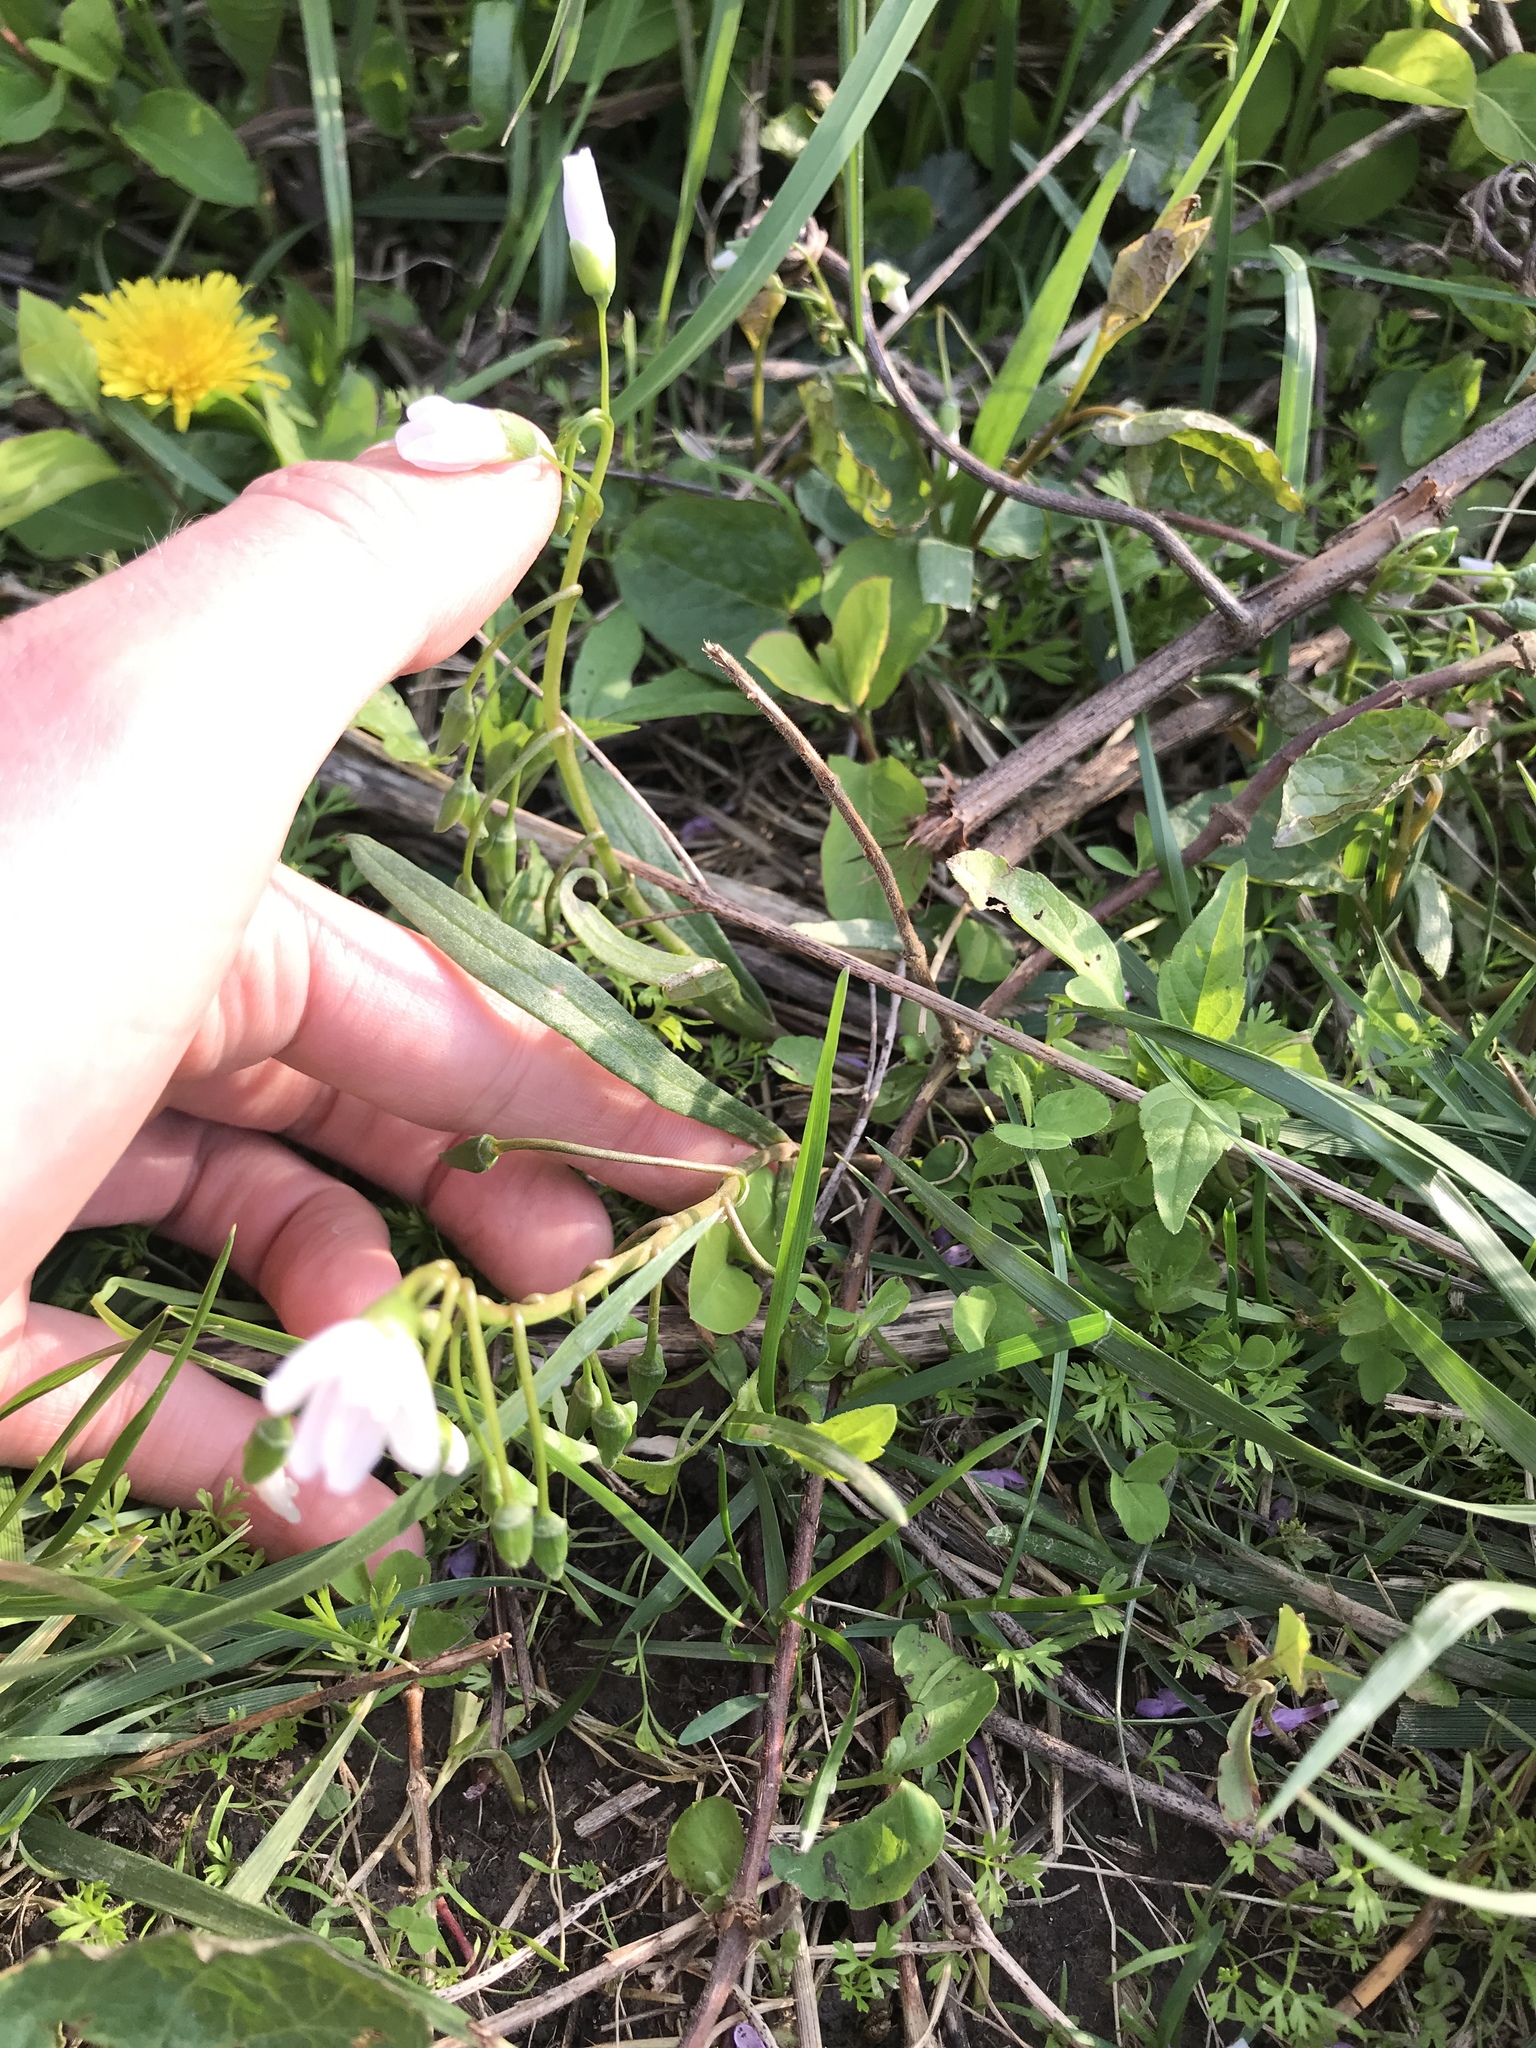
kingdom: Plantae
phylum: Tracheophyta
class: Magnoliopsida
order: Caryophyllales
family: Montiaceae
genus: Claytonia
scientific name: Claytonia virginica
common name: Virginia springbeauty
